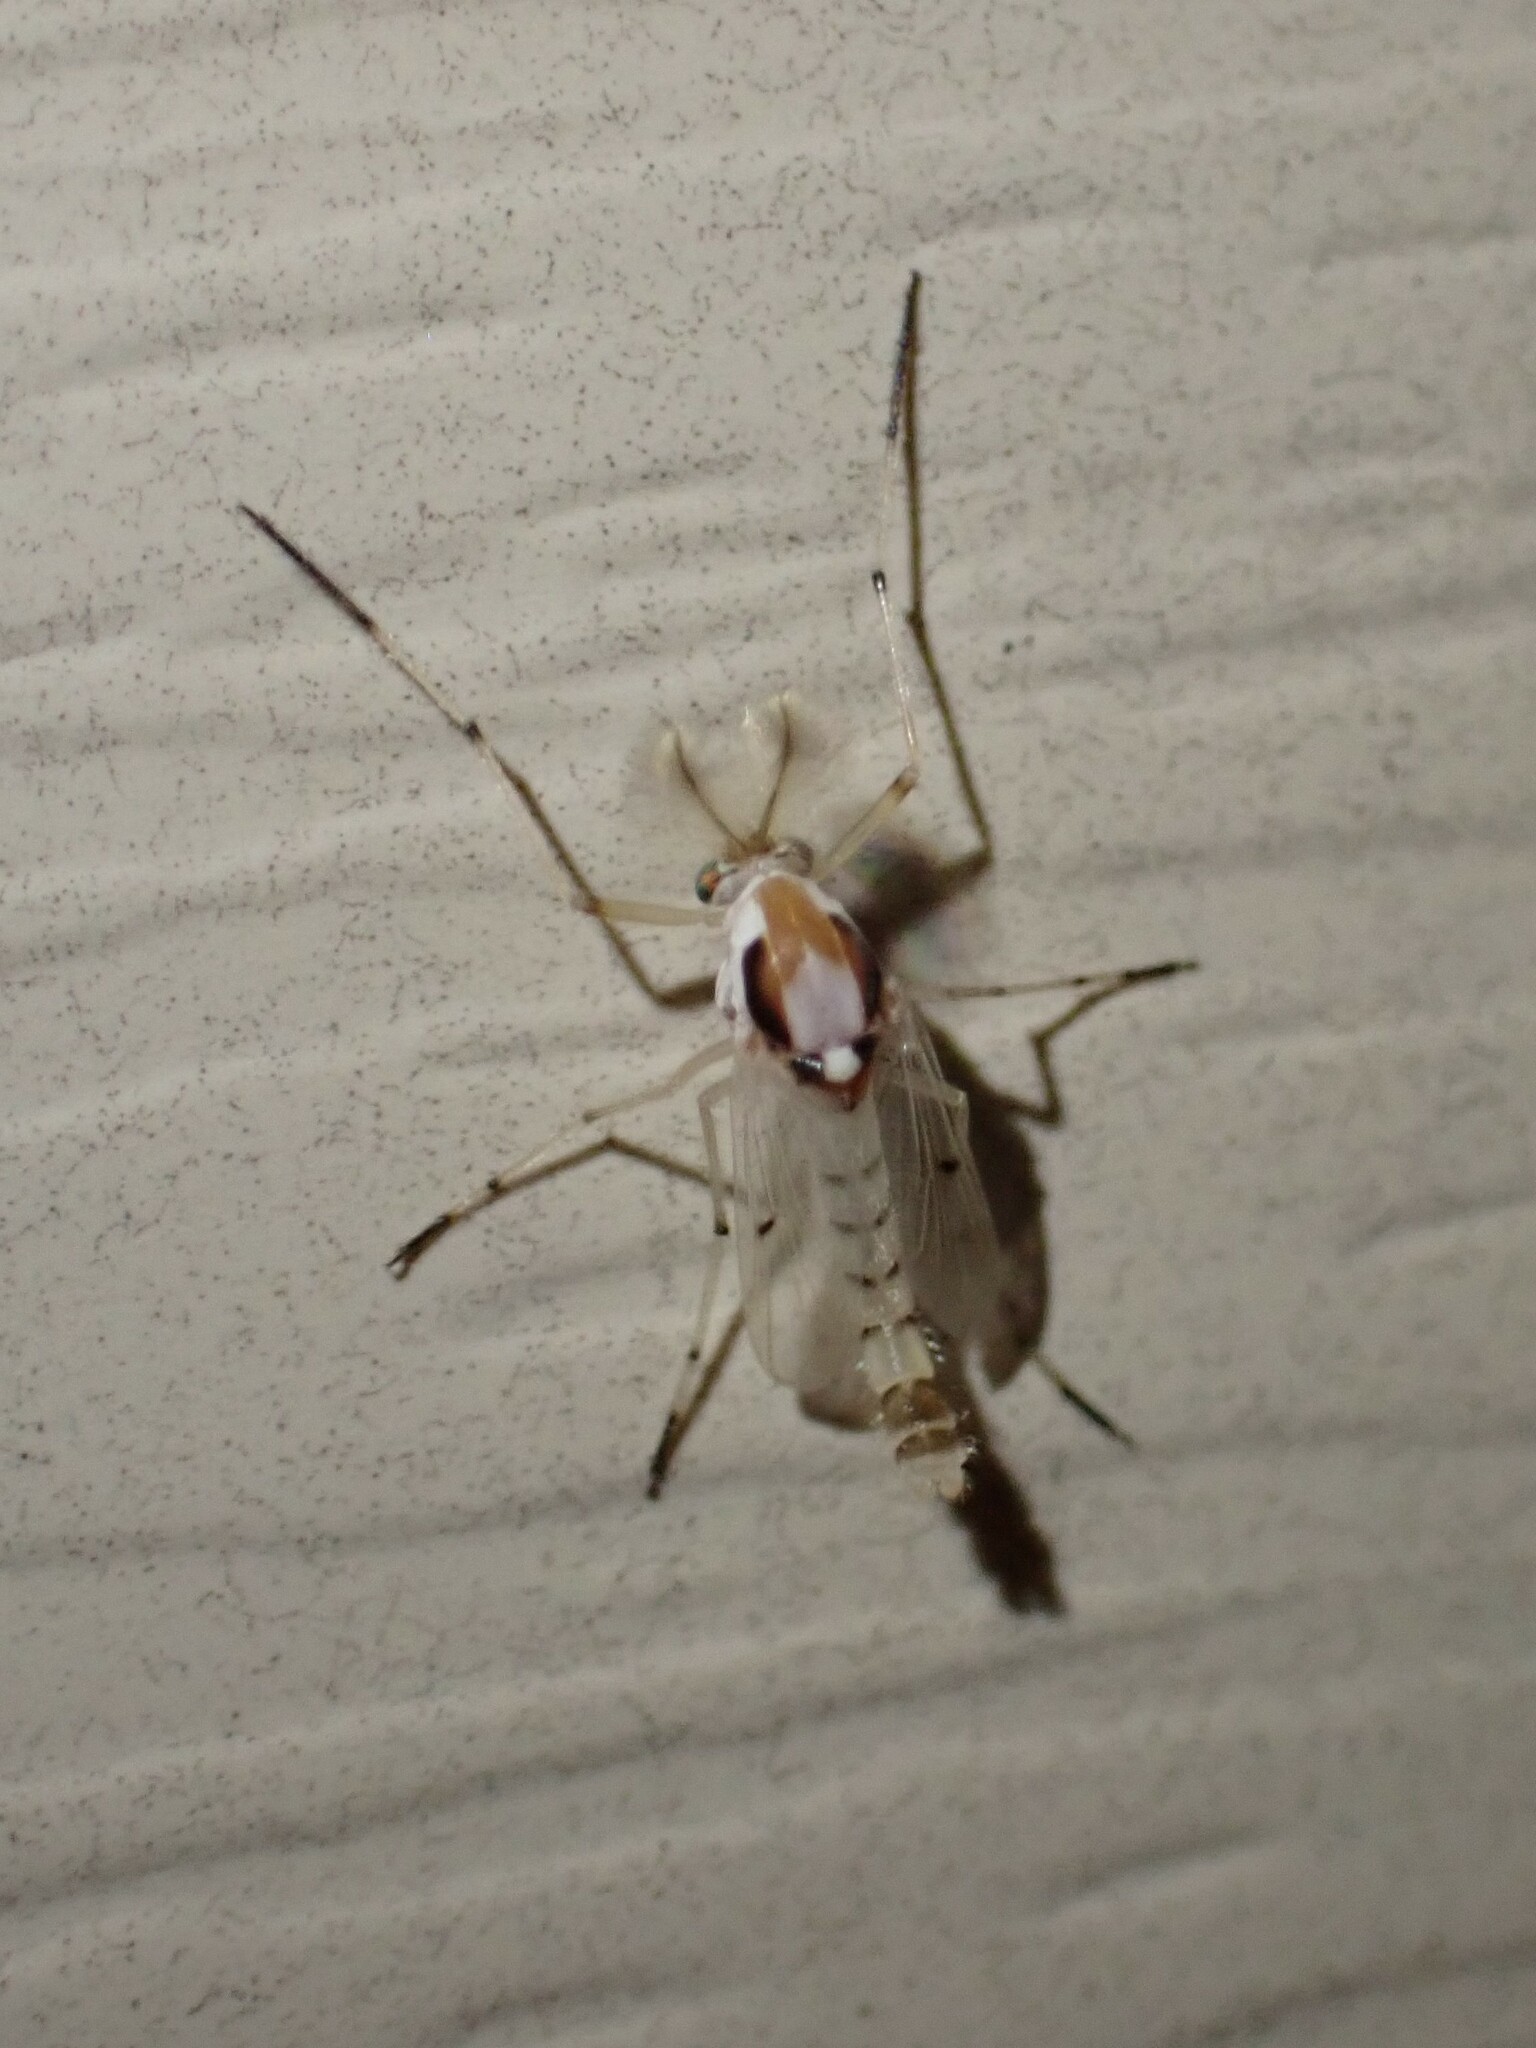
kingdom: Animalia
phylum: Arthropoda
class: Insecta
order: Diptera
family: Chironomidae
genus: Coelotanypus
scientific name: Coelotanypus concinnus
